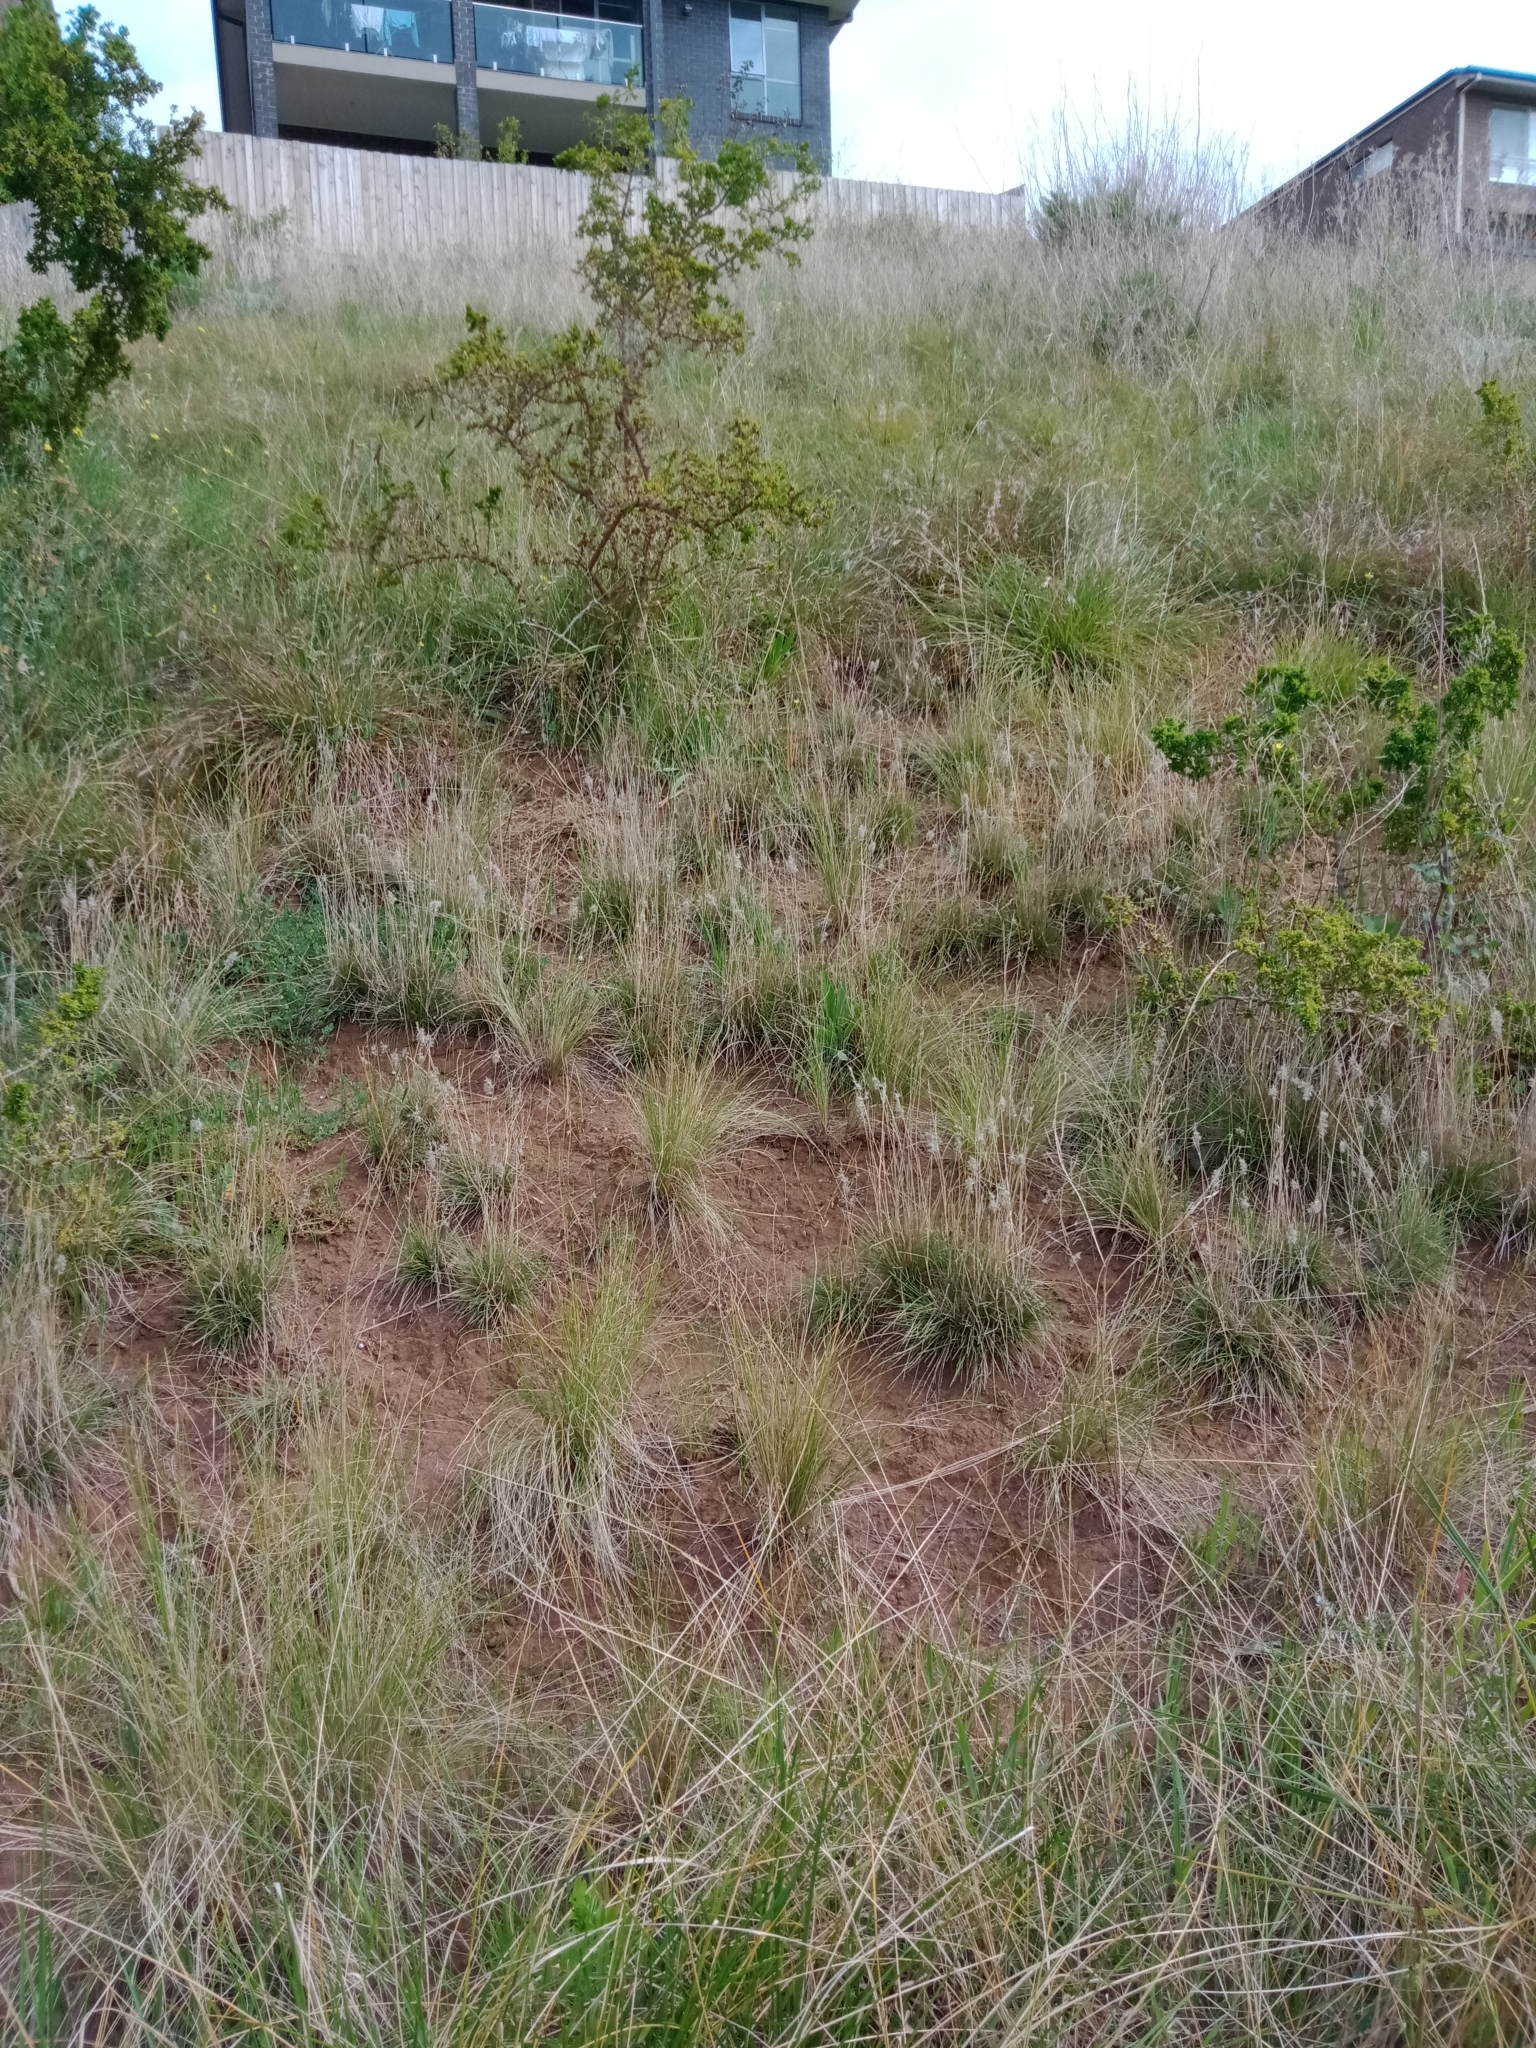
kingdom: Plantae
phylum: Tracheophyta
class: Liliopsida
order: Poales
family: Poaceae
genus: Enneapogon
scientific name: Enneapogon nigricans
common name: Pappus grass
